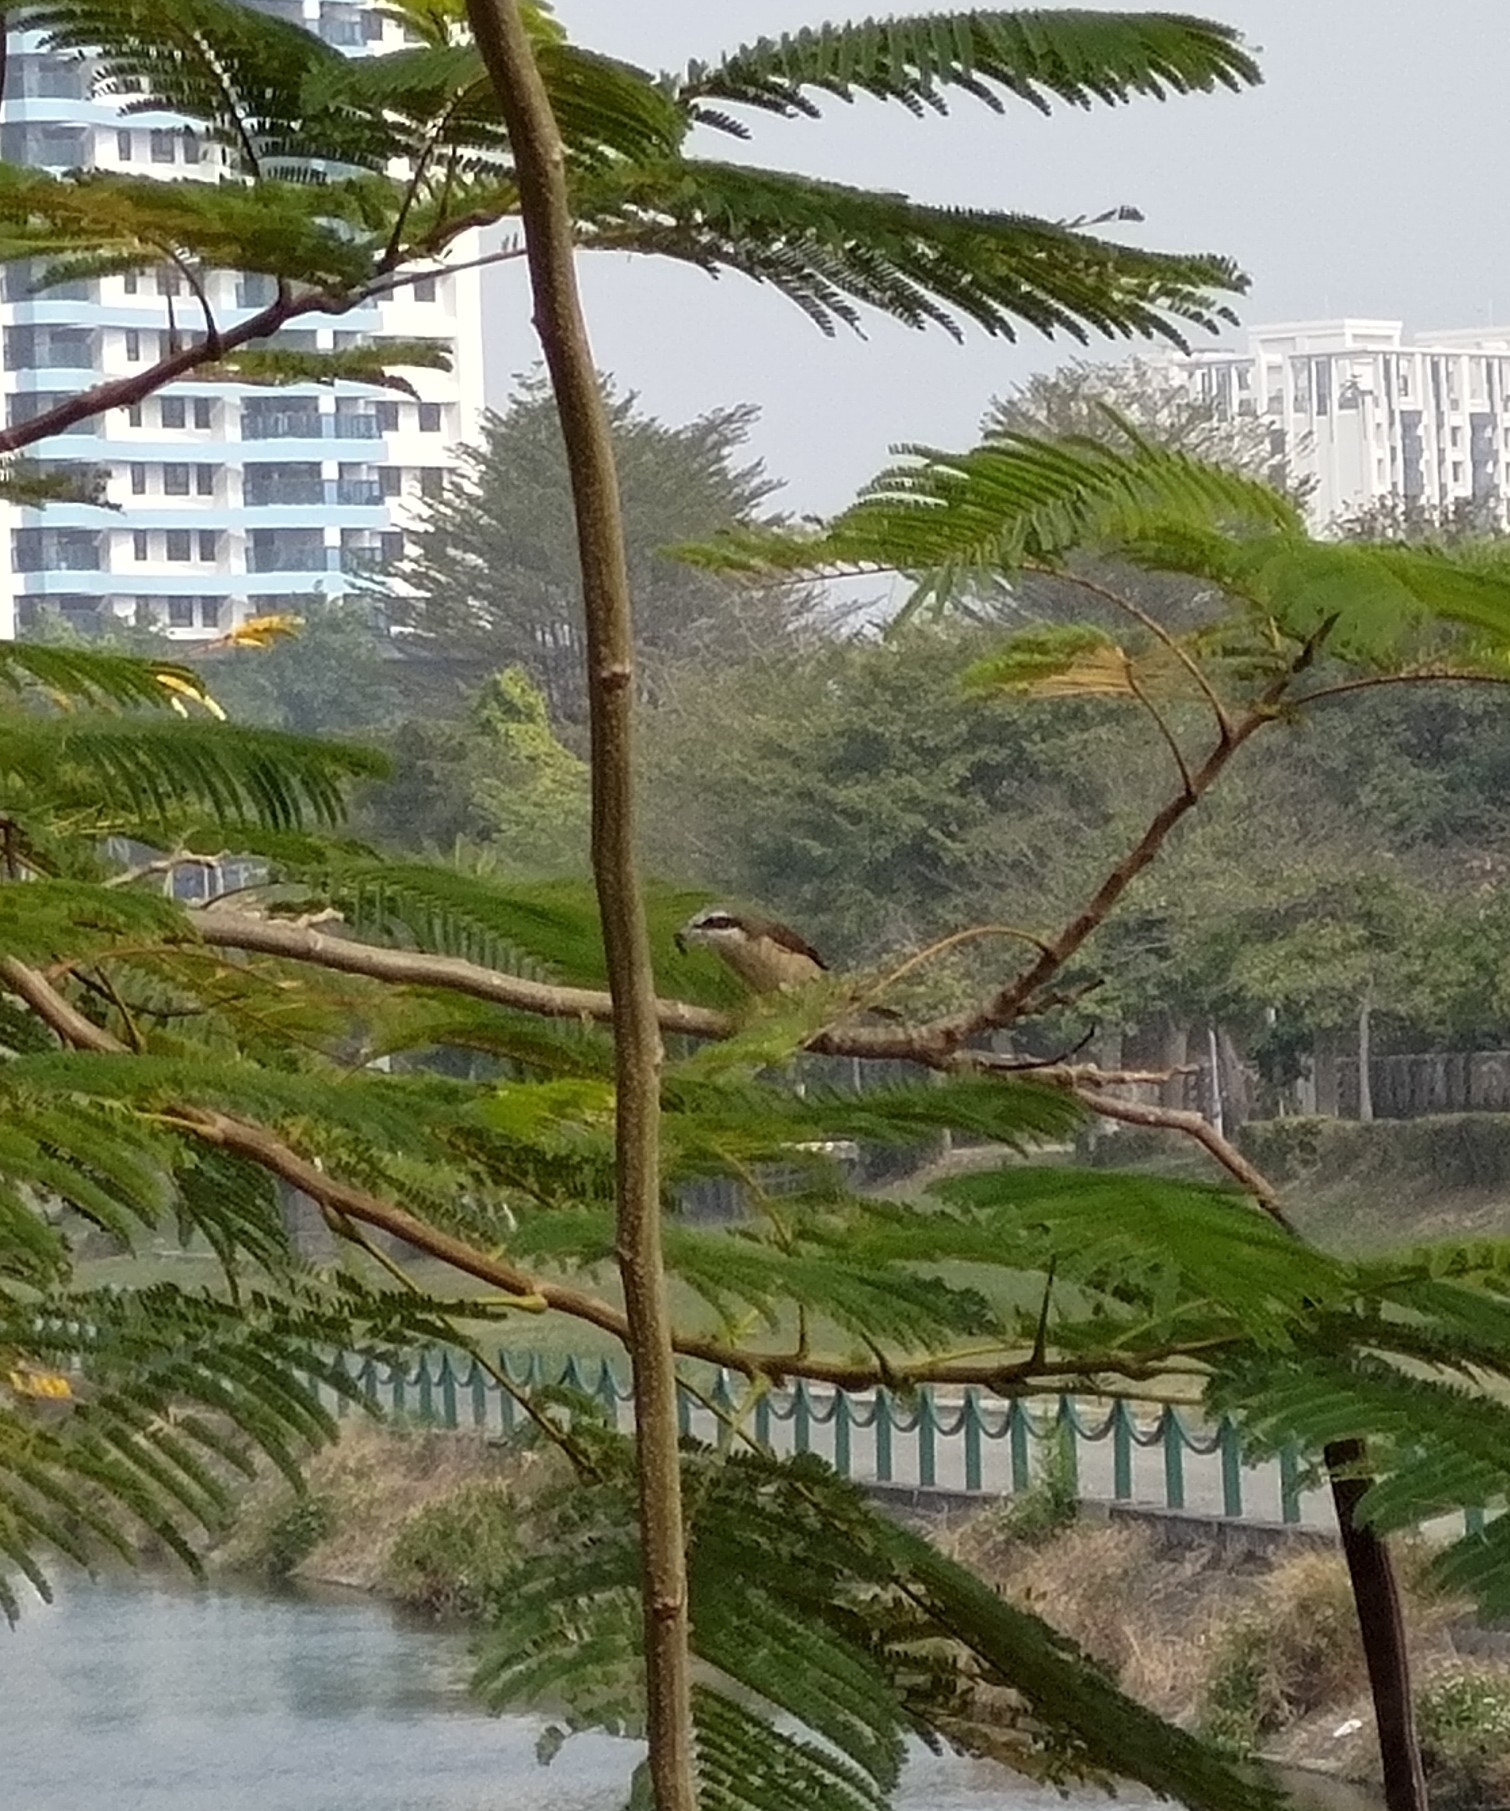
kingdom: Animalia
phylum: Chordata
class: Aves
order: Passeriformes
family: Laniidae
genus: Lanius
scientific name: Lanius cristatus
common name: Brown shrike
